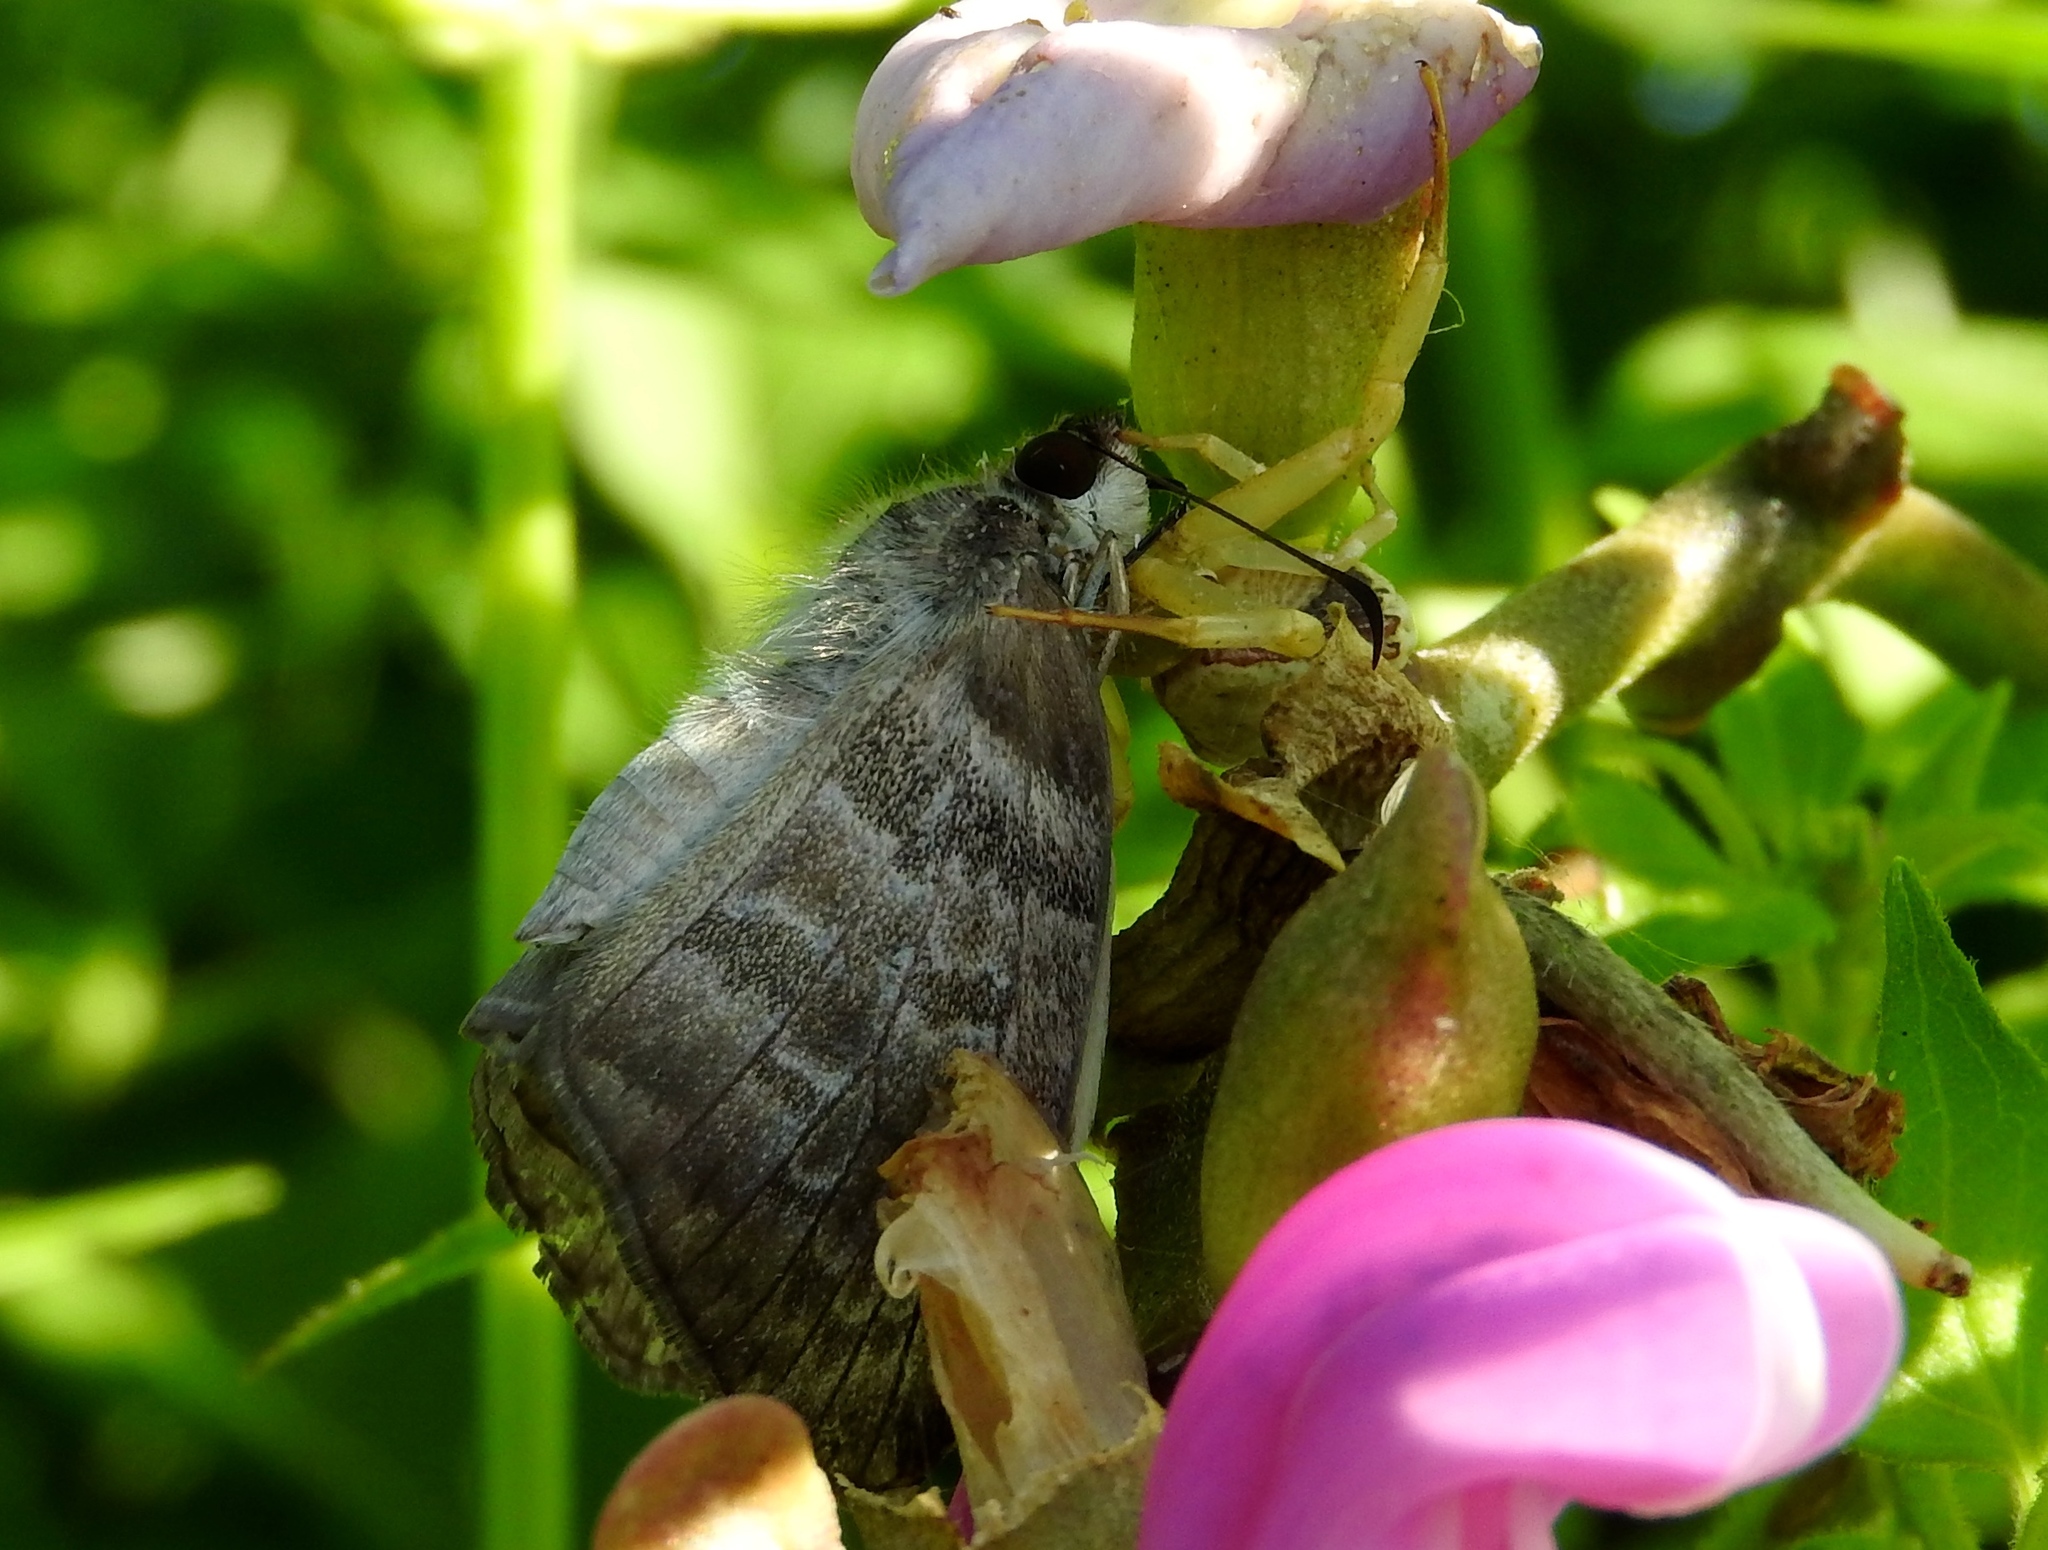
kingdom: Animalia
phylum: Arthropoda
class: Insecta
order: Lepidoptera
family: Hesperiidae
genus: Mylon
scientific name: Mylon pelopidas
